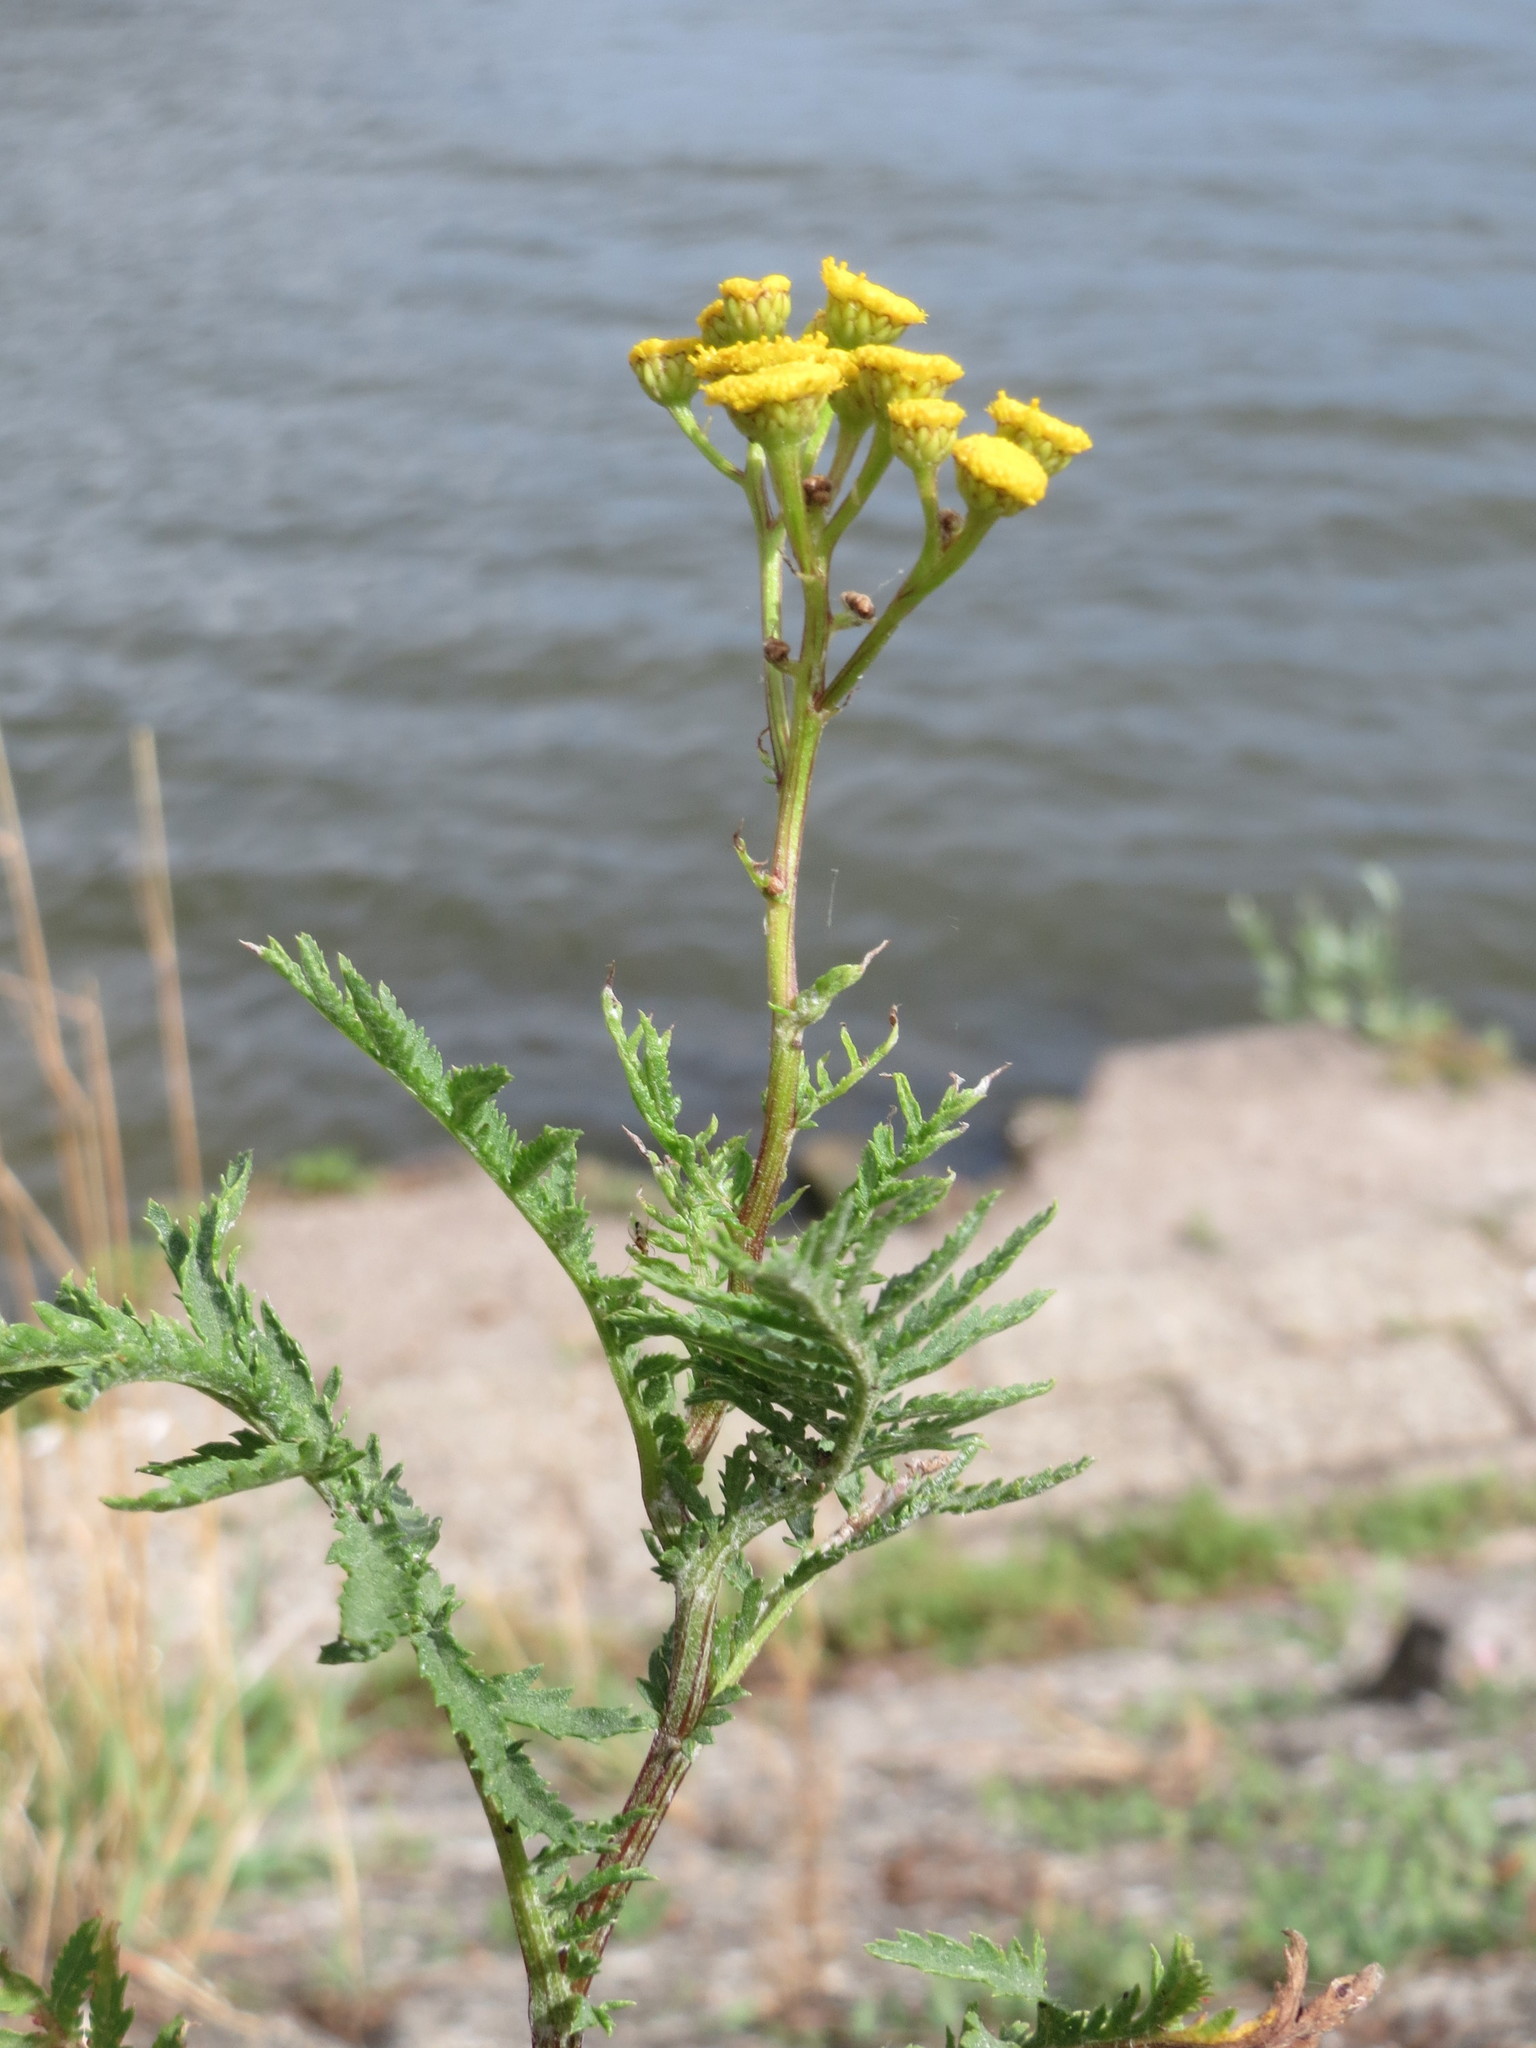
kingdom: Plantae
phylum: Tracheophyta
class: Magnoliopsida
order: Asterales
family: Asteraceae
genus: Tanacetum
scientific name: Tanacetum vulgare
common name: Common tansy
